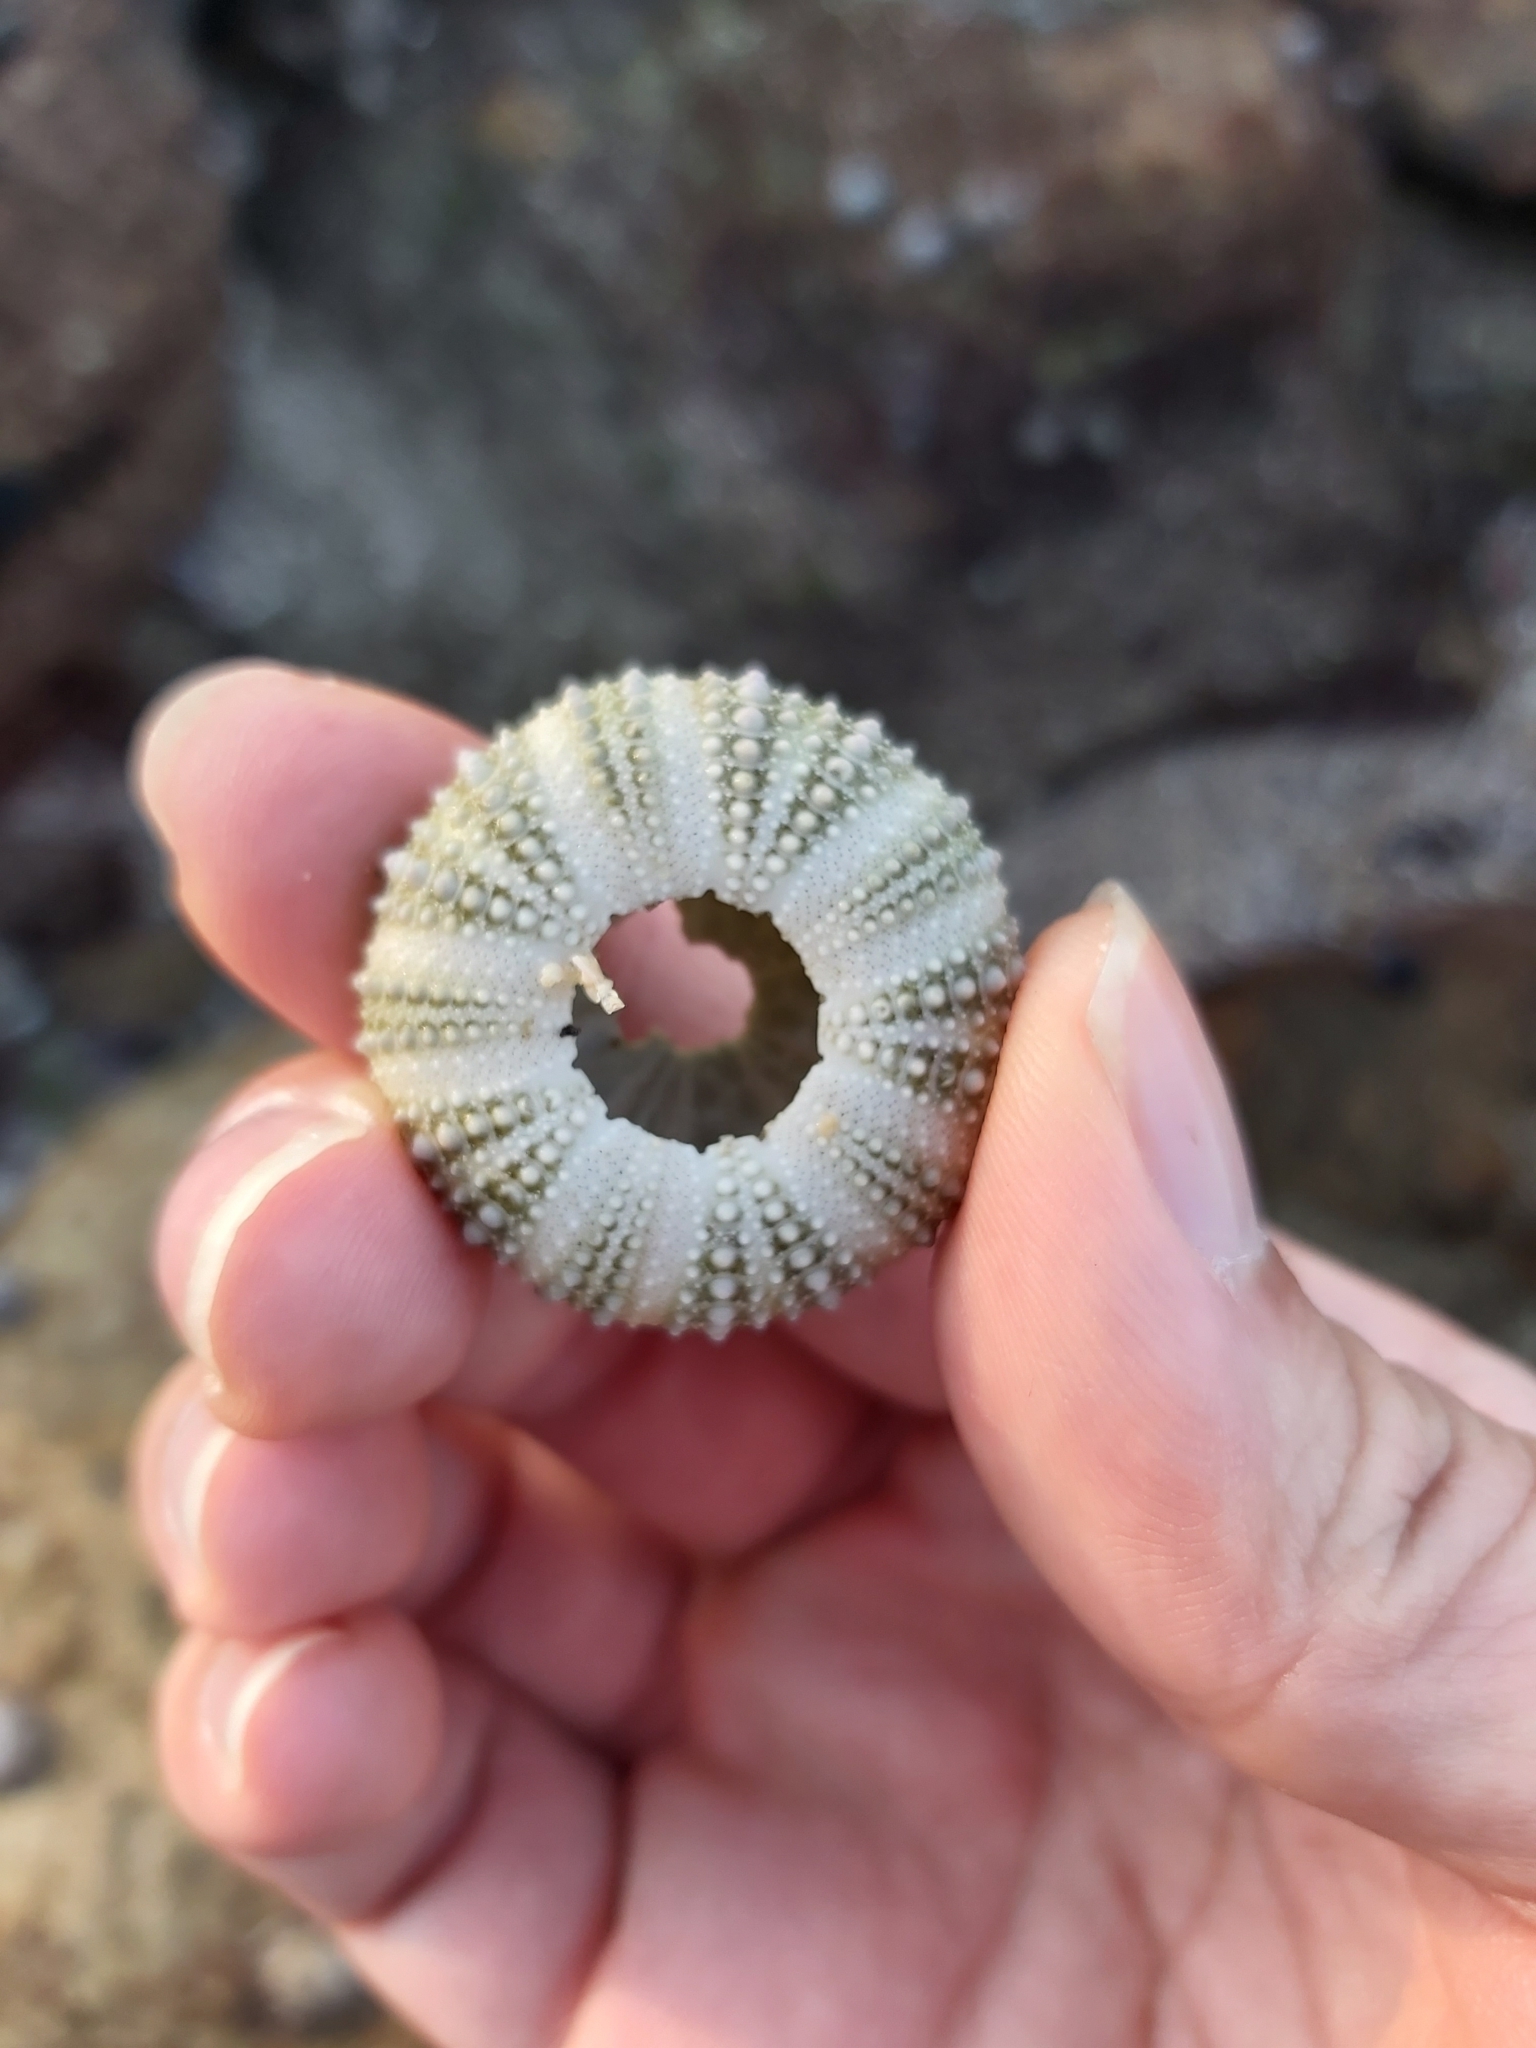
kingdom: Animalia
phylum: Echinodermata
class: Echinoidea
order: Camarodonta
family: Echinometridae
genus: Heliocidaris
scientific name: Heliocidaris erythrogramma
